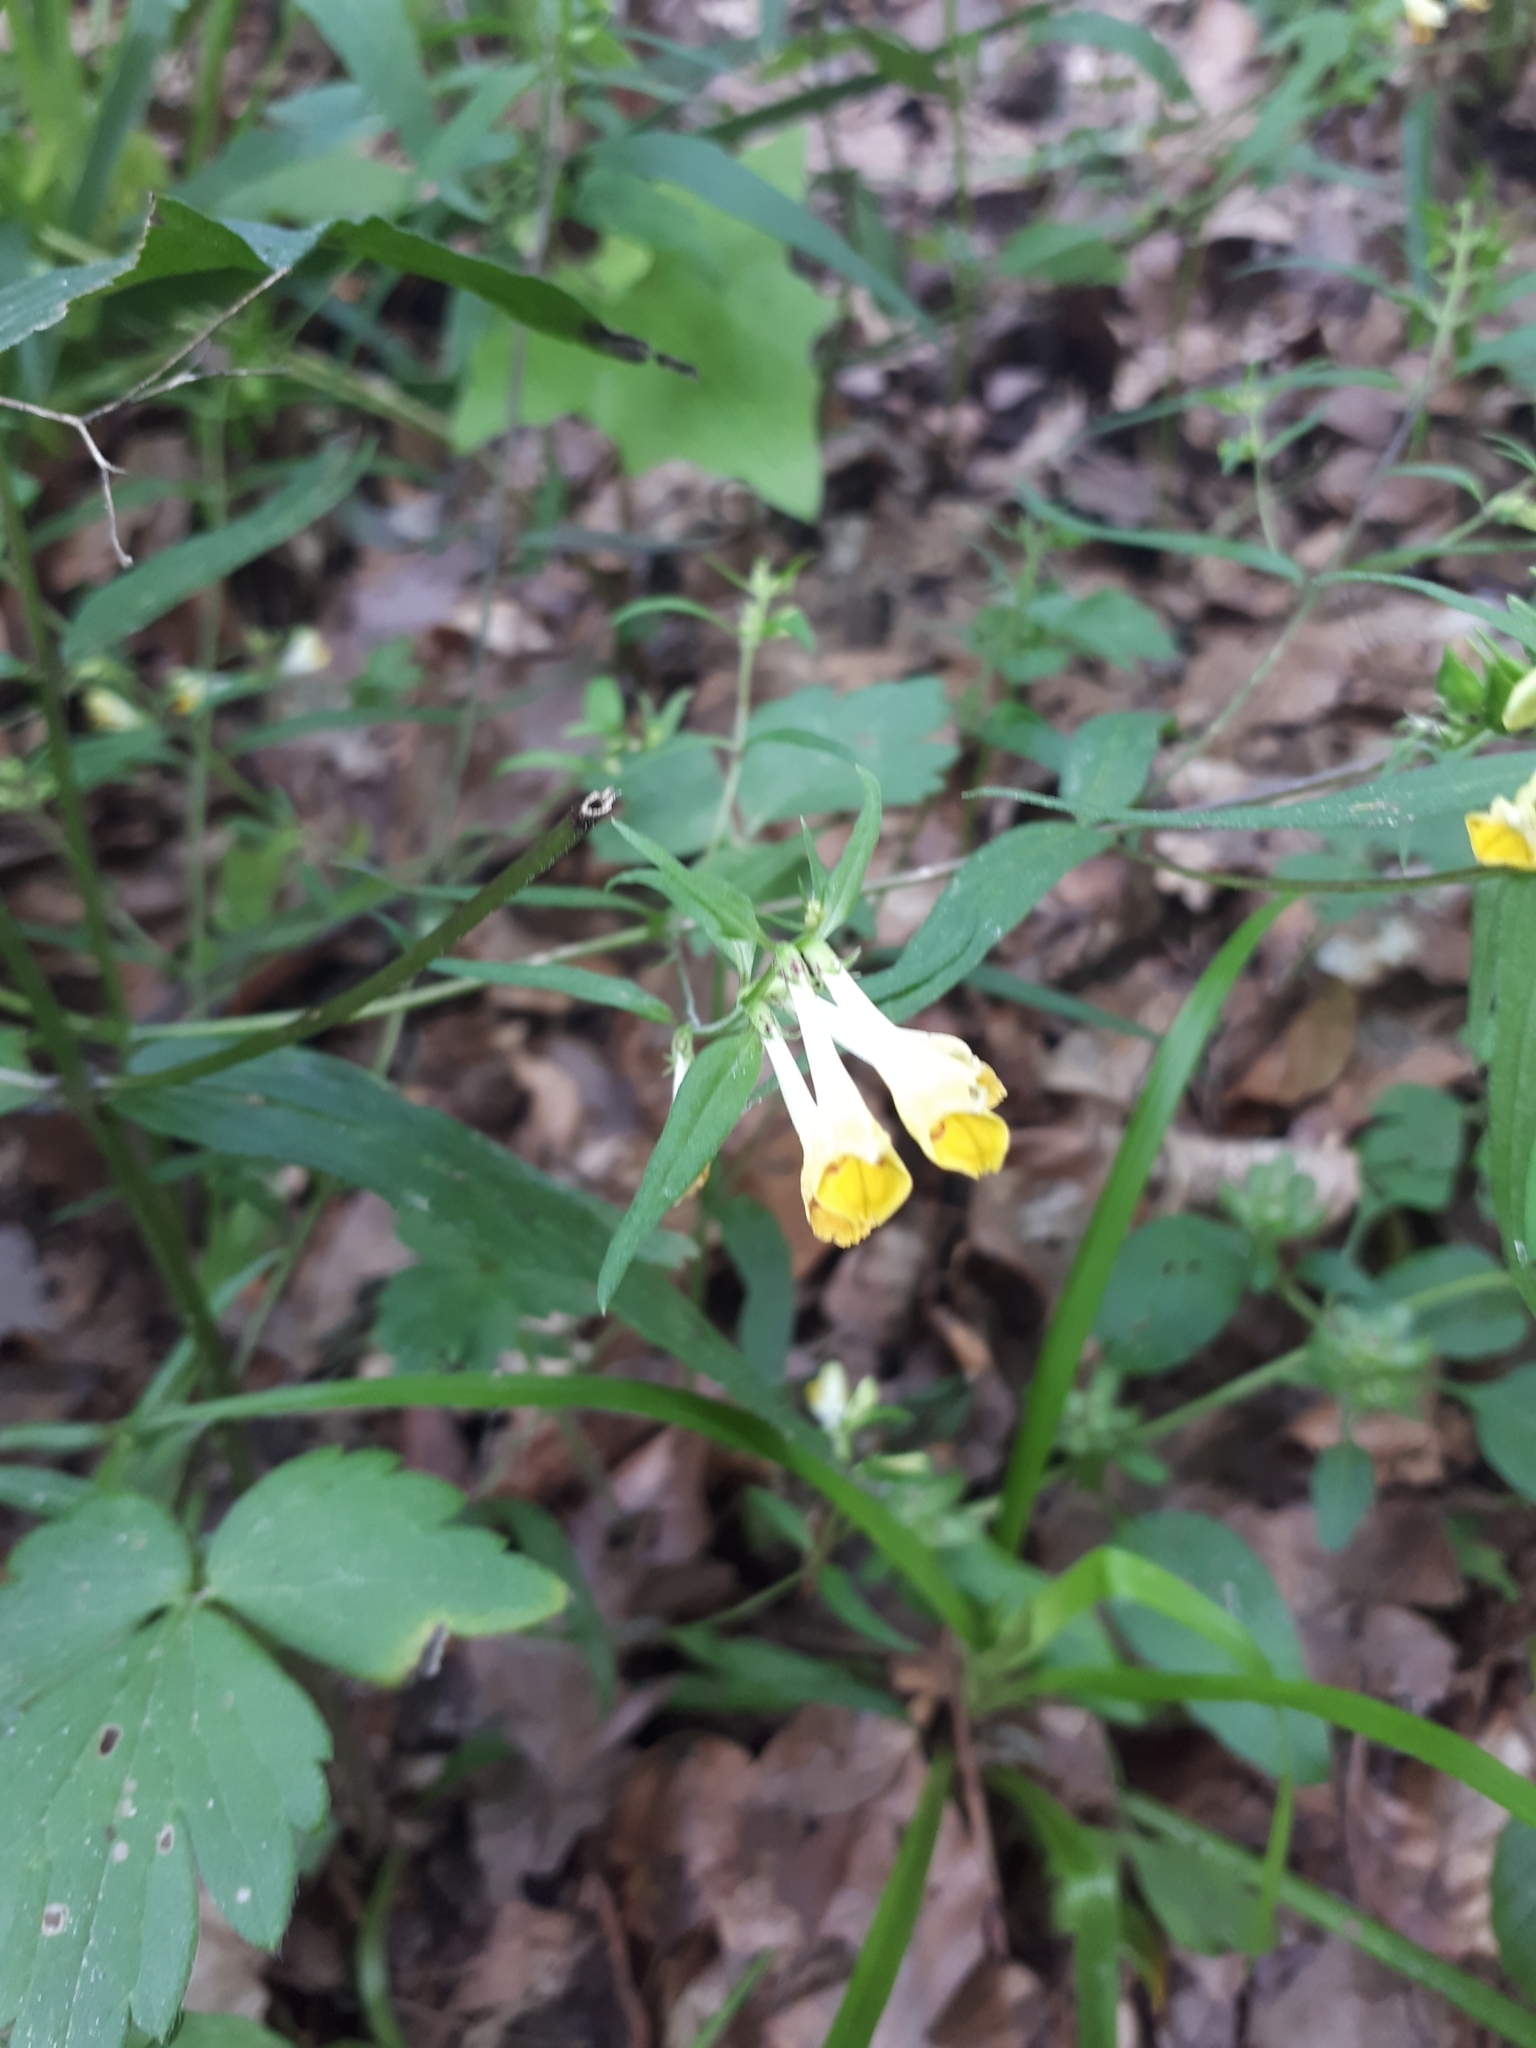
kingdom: Plantae
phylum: Tracheophyta
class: Magnoliopsida
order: Lamiales
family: Orobanchaceae
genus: Melampyrum
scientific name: Melampyrum pratense
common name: Common cow-wheat
